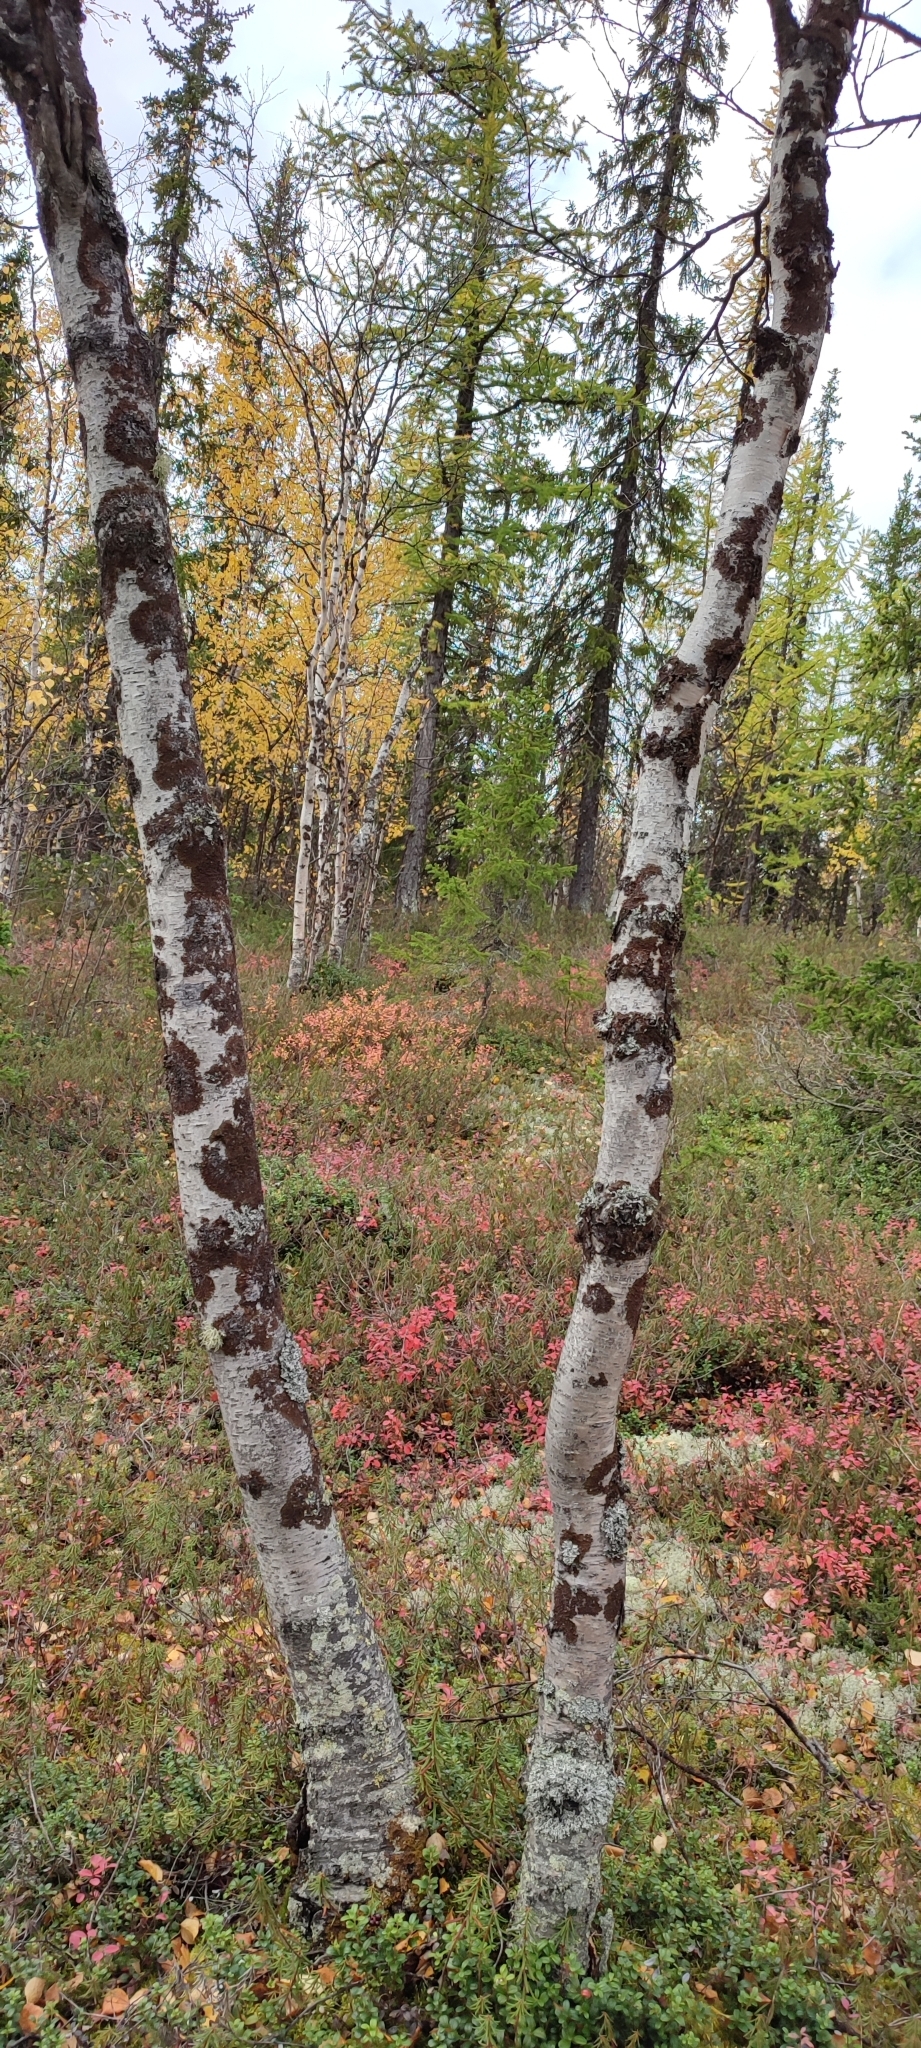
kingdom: Plantae
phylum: Tracheophyta
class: Magnoliopsida
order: Fagales
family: Betulaceae
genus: Betula
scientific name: Betula pubescens
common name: Downy birch
